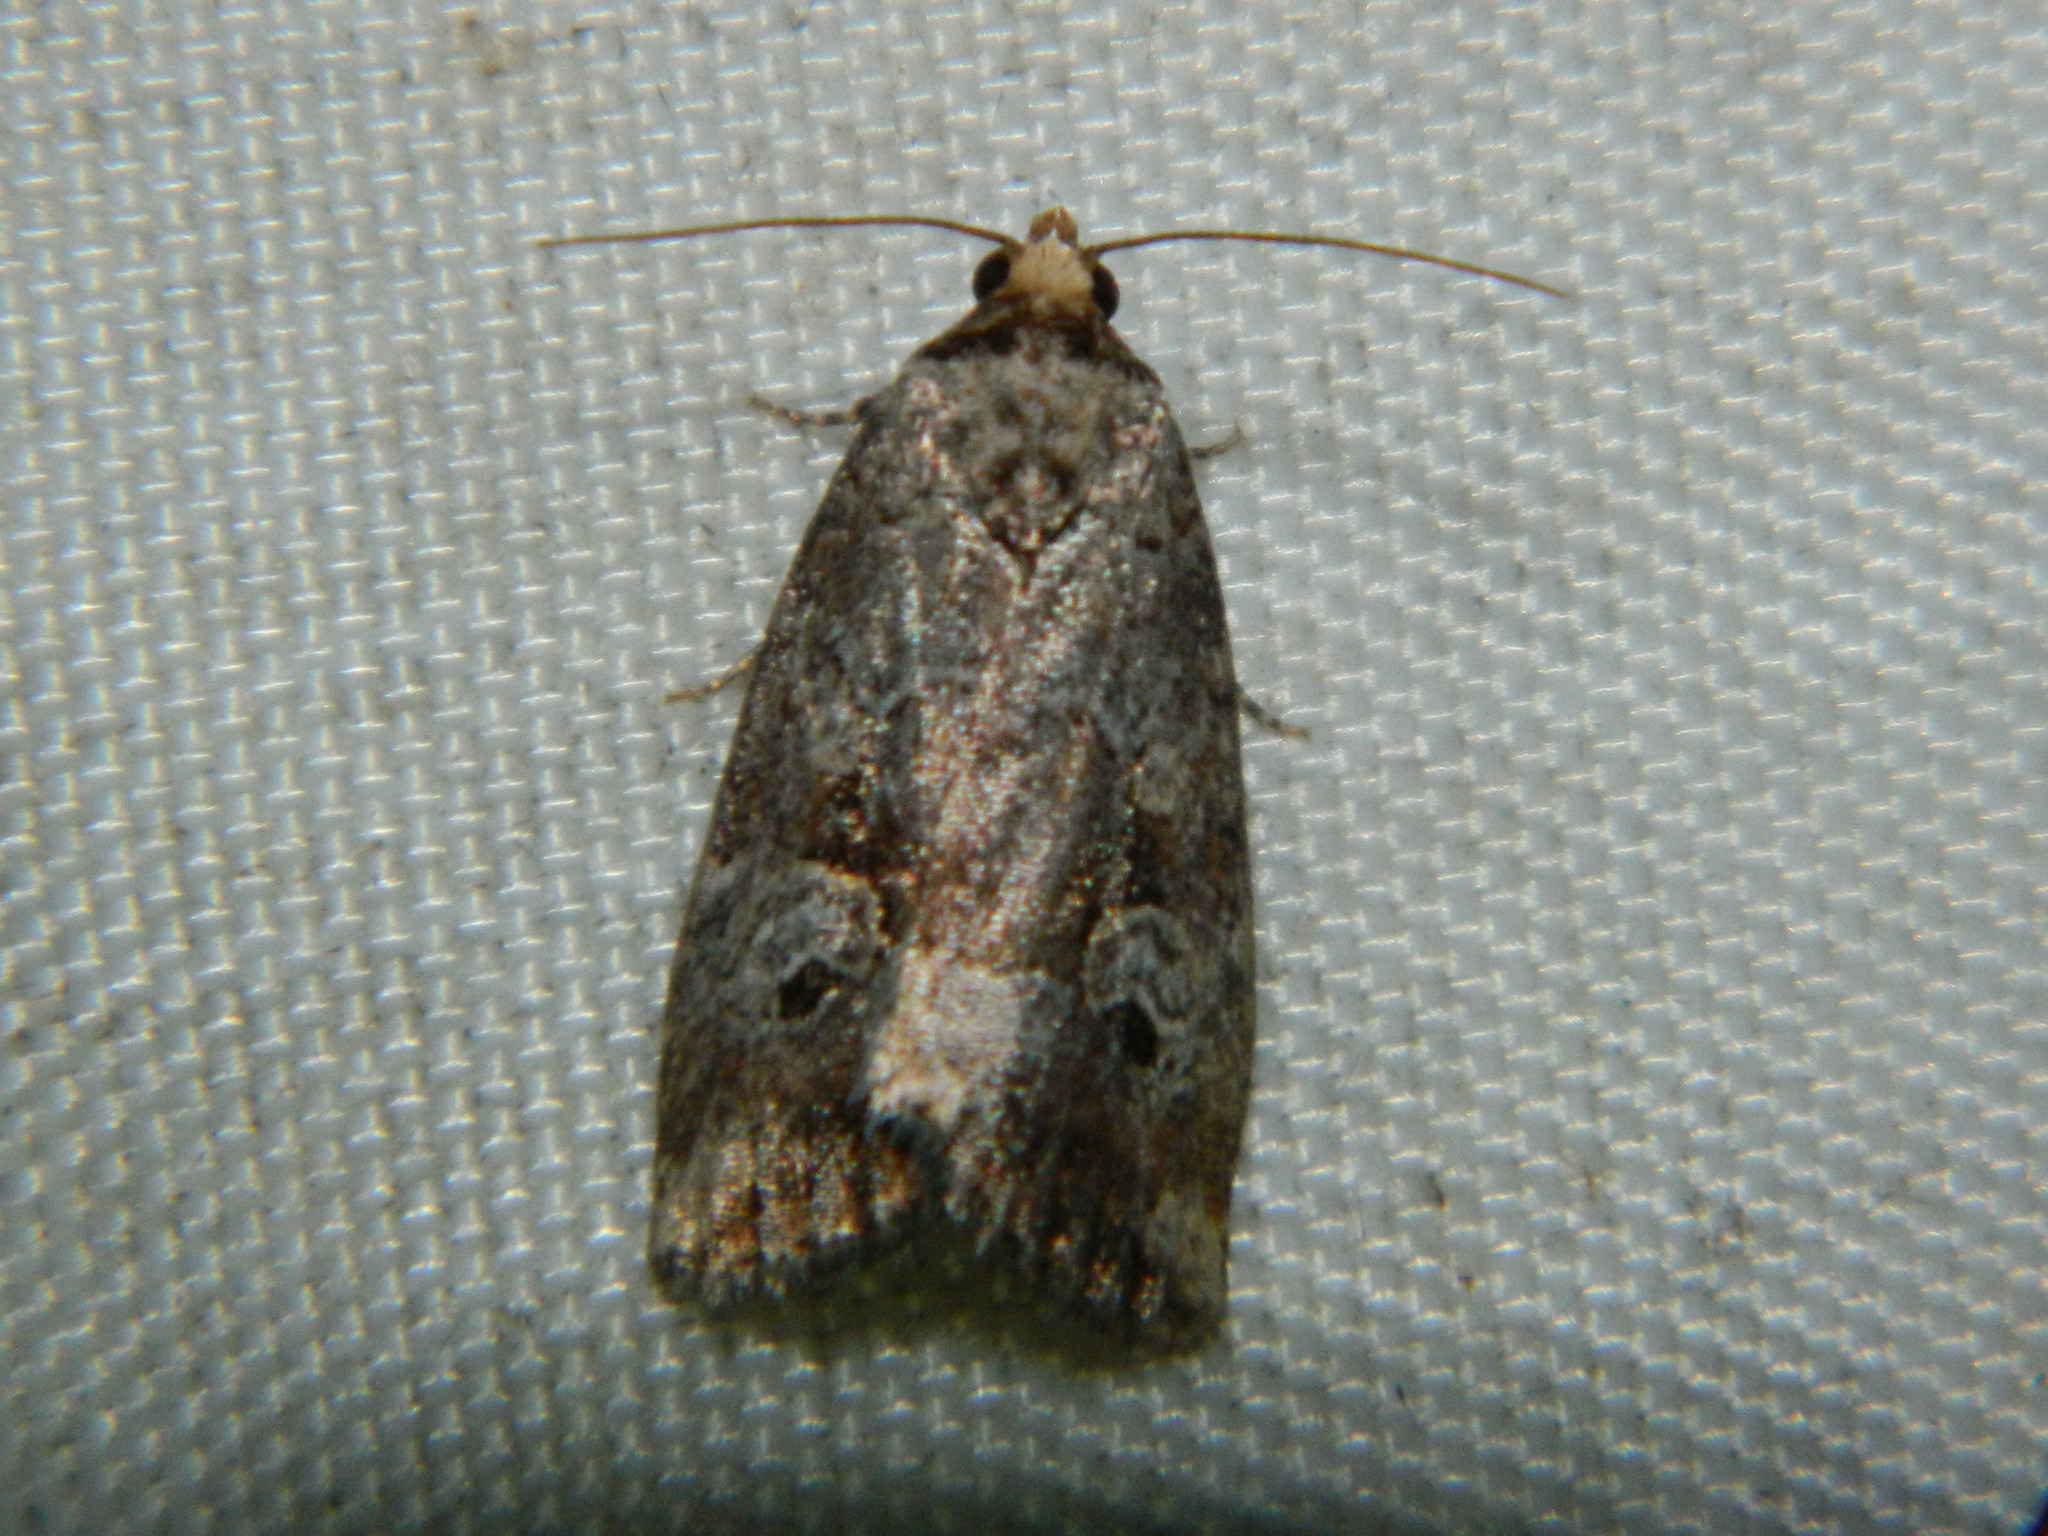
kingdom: Animalia
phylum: Arthropoda
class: Insecta
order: Lepidoptera
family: Noctuidae
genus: Elaphria
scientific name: Elaphria alapallida
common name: Pale-winged midget
